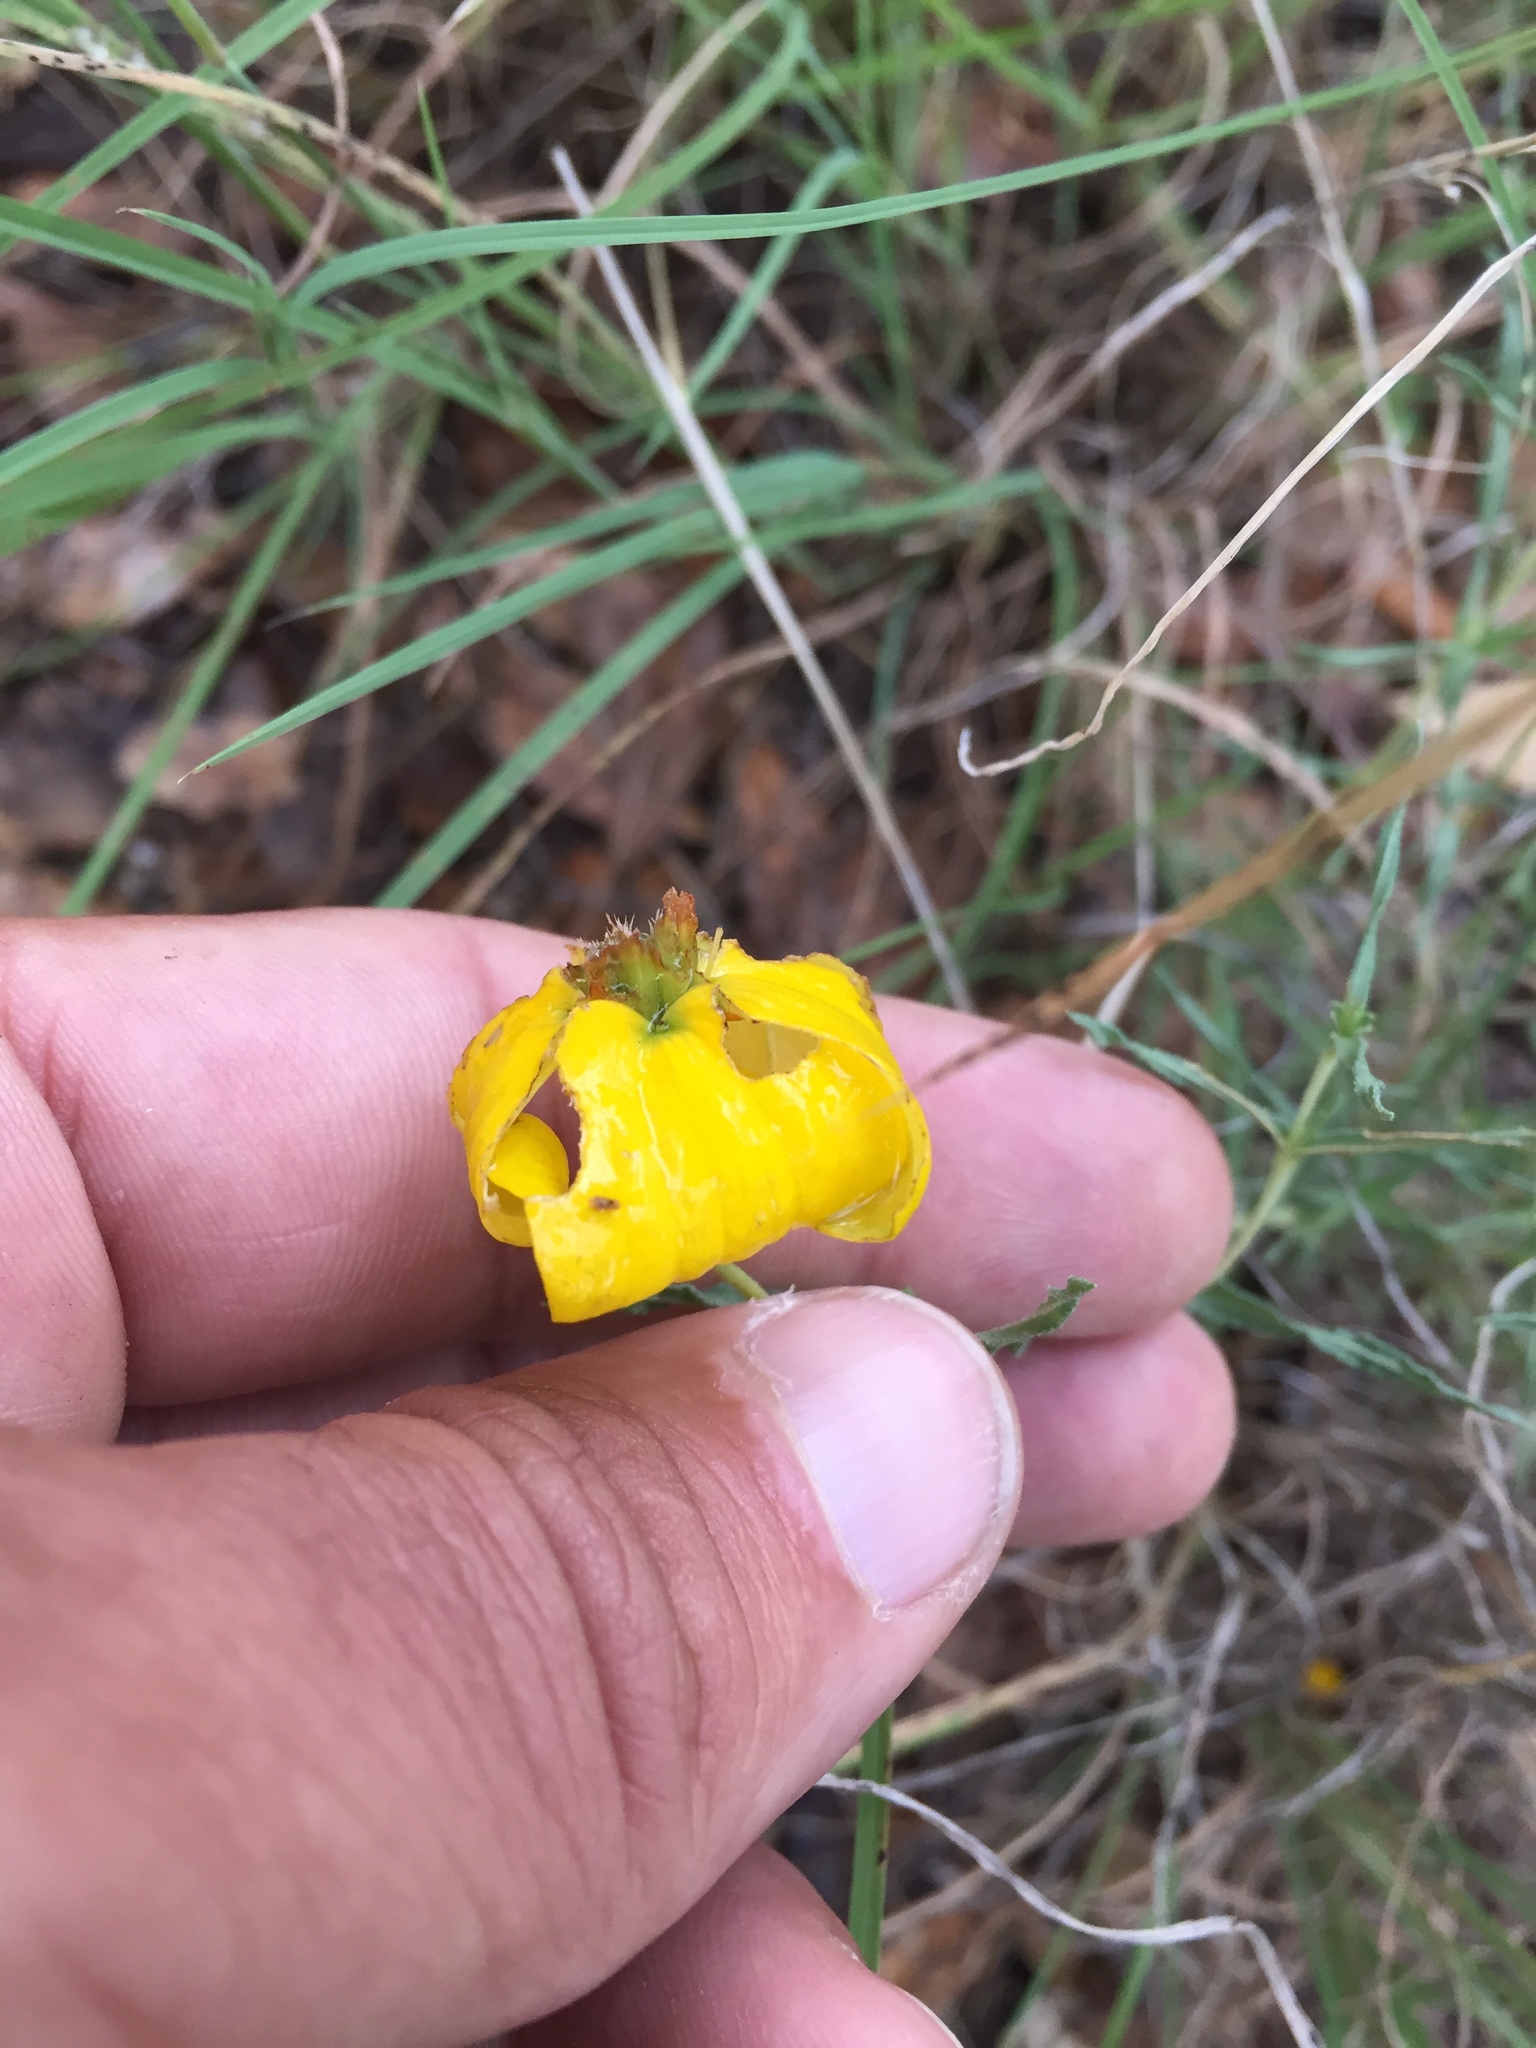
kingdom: Plantae
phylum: Tracheophyta
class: Magnoliopsida
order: Asterales
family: Asteraceae
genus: Zinnia
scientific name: Zinnia grandiflora
